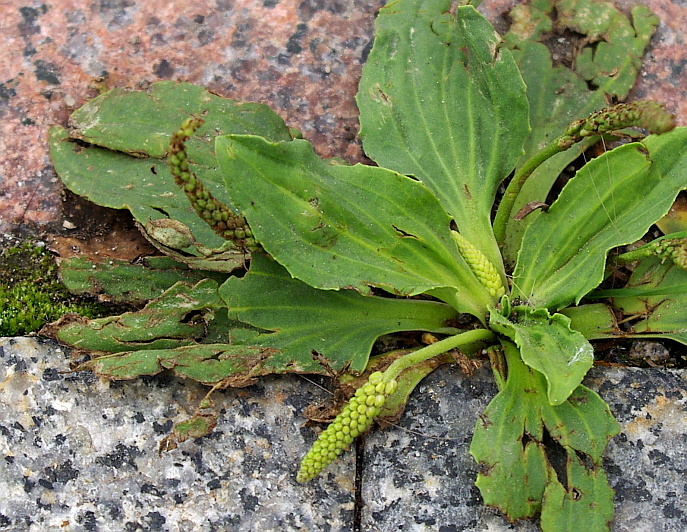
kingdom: Plantae
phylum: Tracheophyta
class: Magnoliopsida
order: Lamiales
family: Plantaginaceae
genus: Plantago
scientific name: Plantago major
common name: Common plantain
